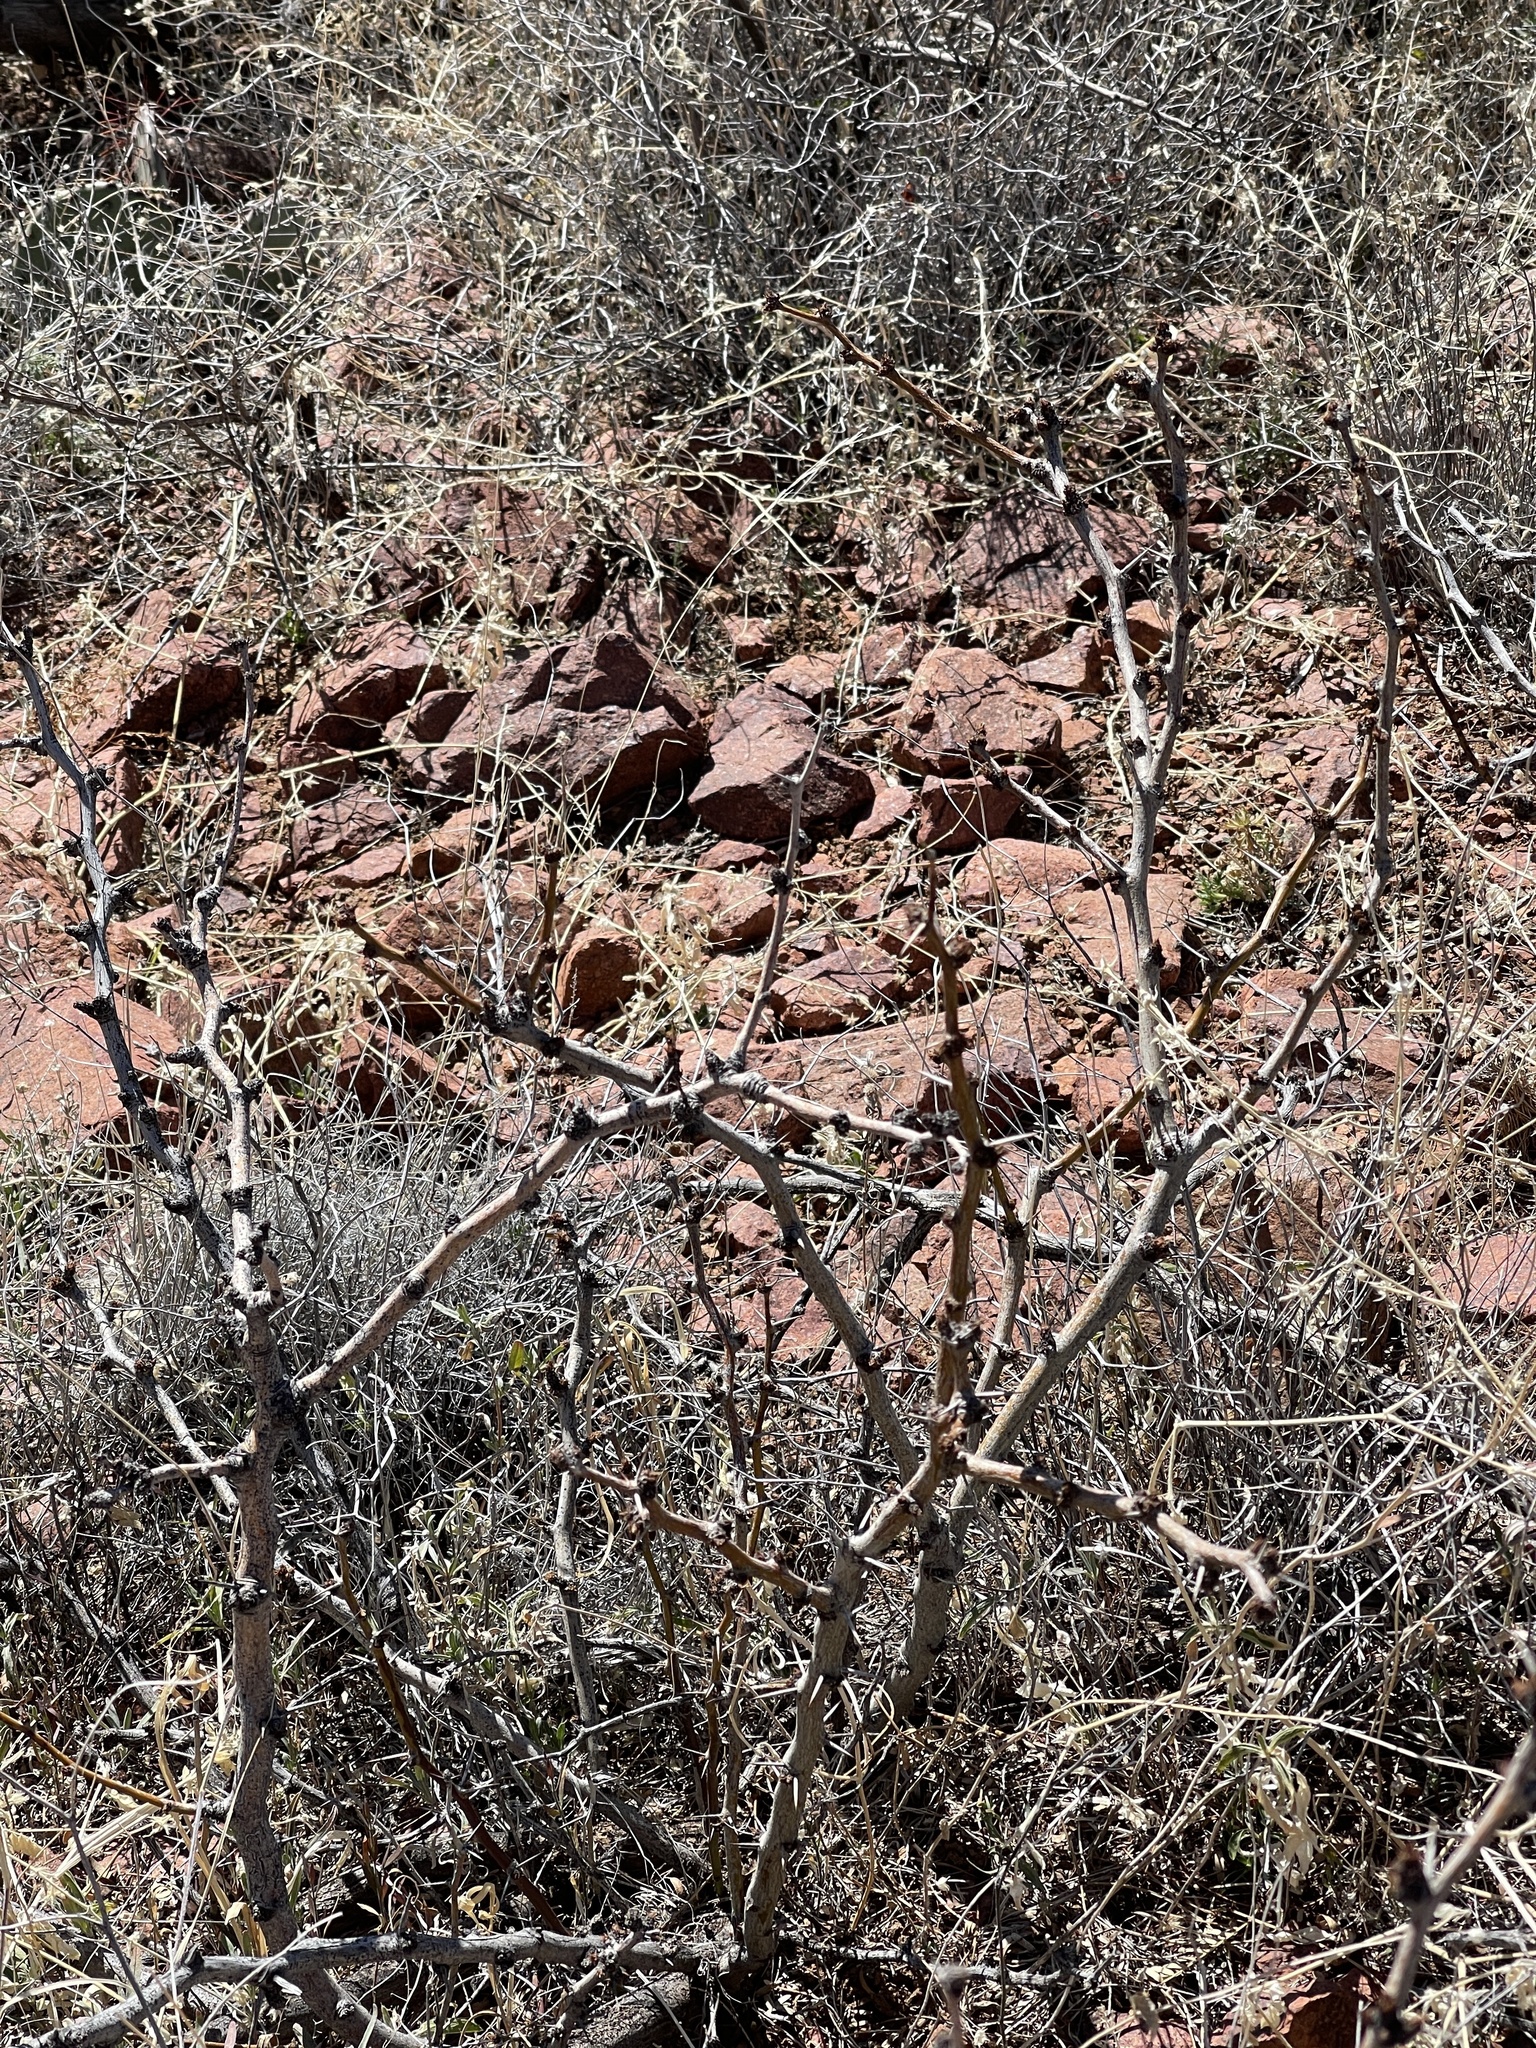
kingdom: Plantae
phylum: Tracheophyta
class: Magnoliopsida
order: Fabales
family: Fabaceae
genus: Prosopis
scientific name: Prosopis glandulosa
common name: Honey mesquite
